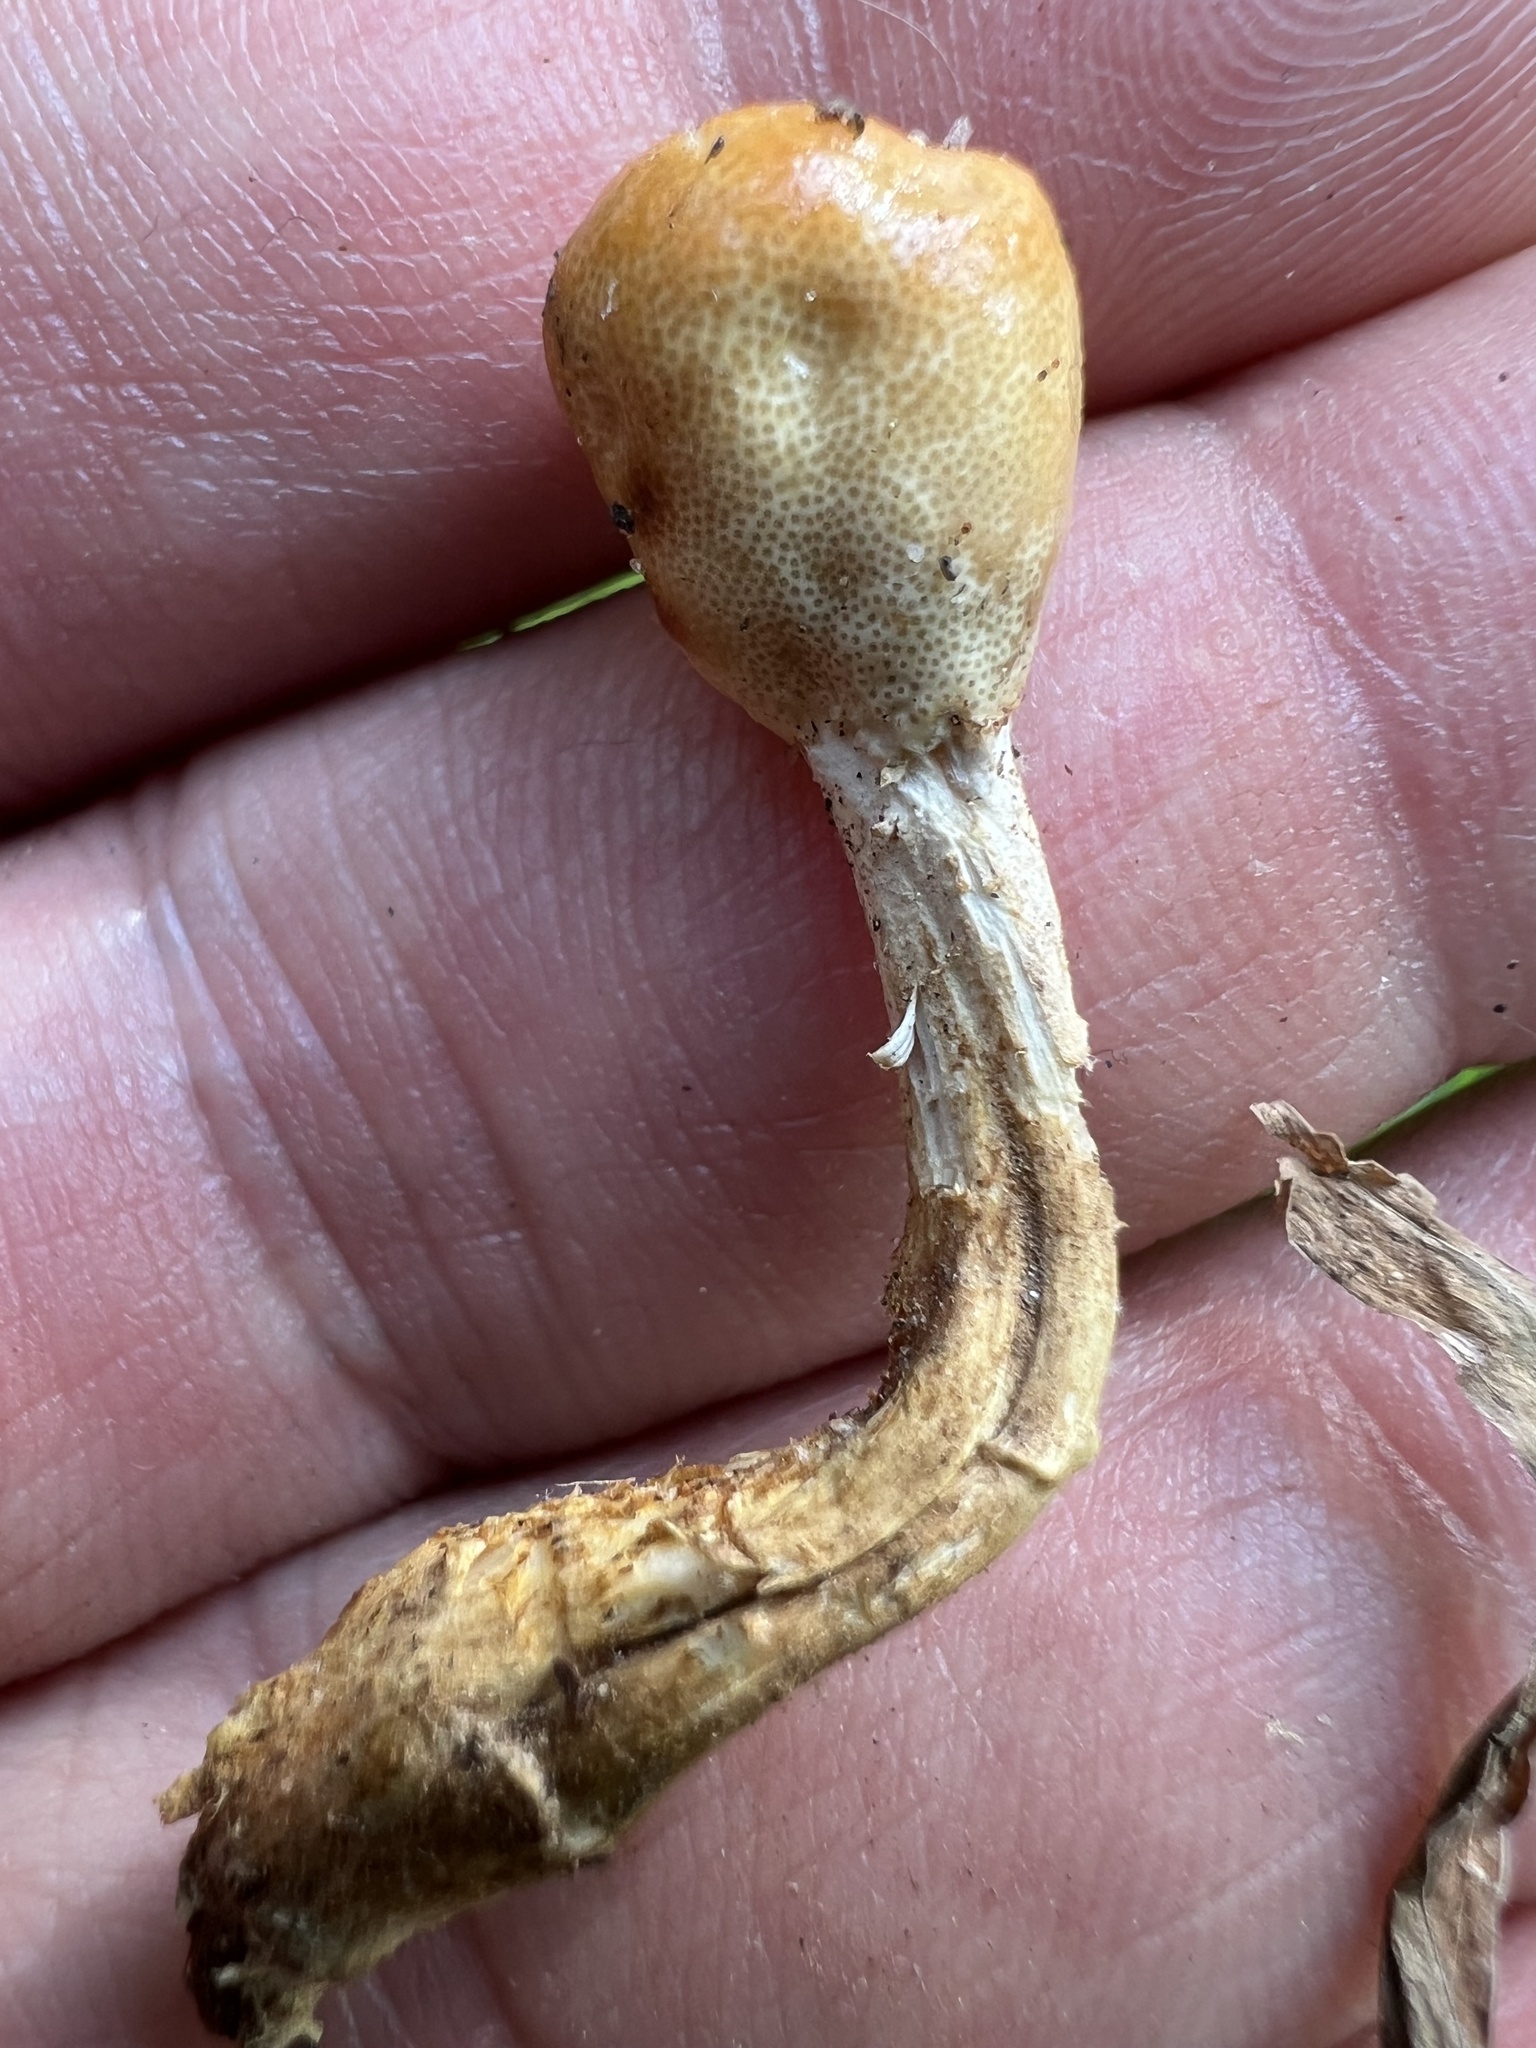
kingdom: Fungi
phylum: Ascomycota
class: Sordariomycetes
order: Hypocreales
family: Ophiocordycipitaceae
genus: Paraisaria
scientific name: Paraisaria
